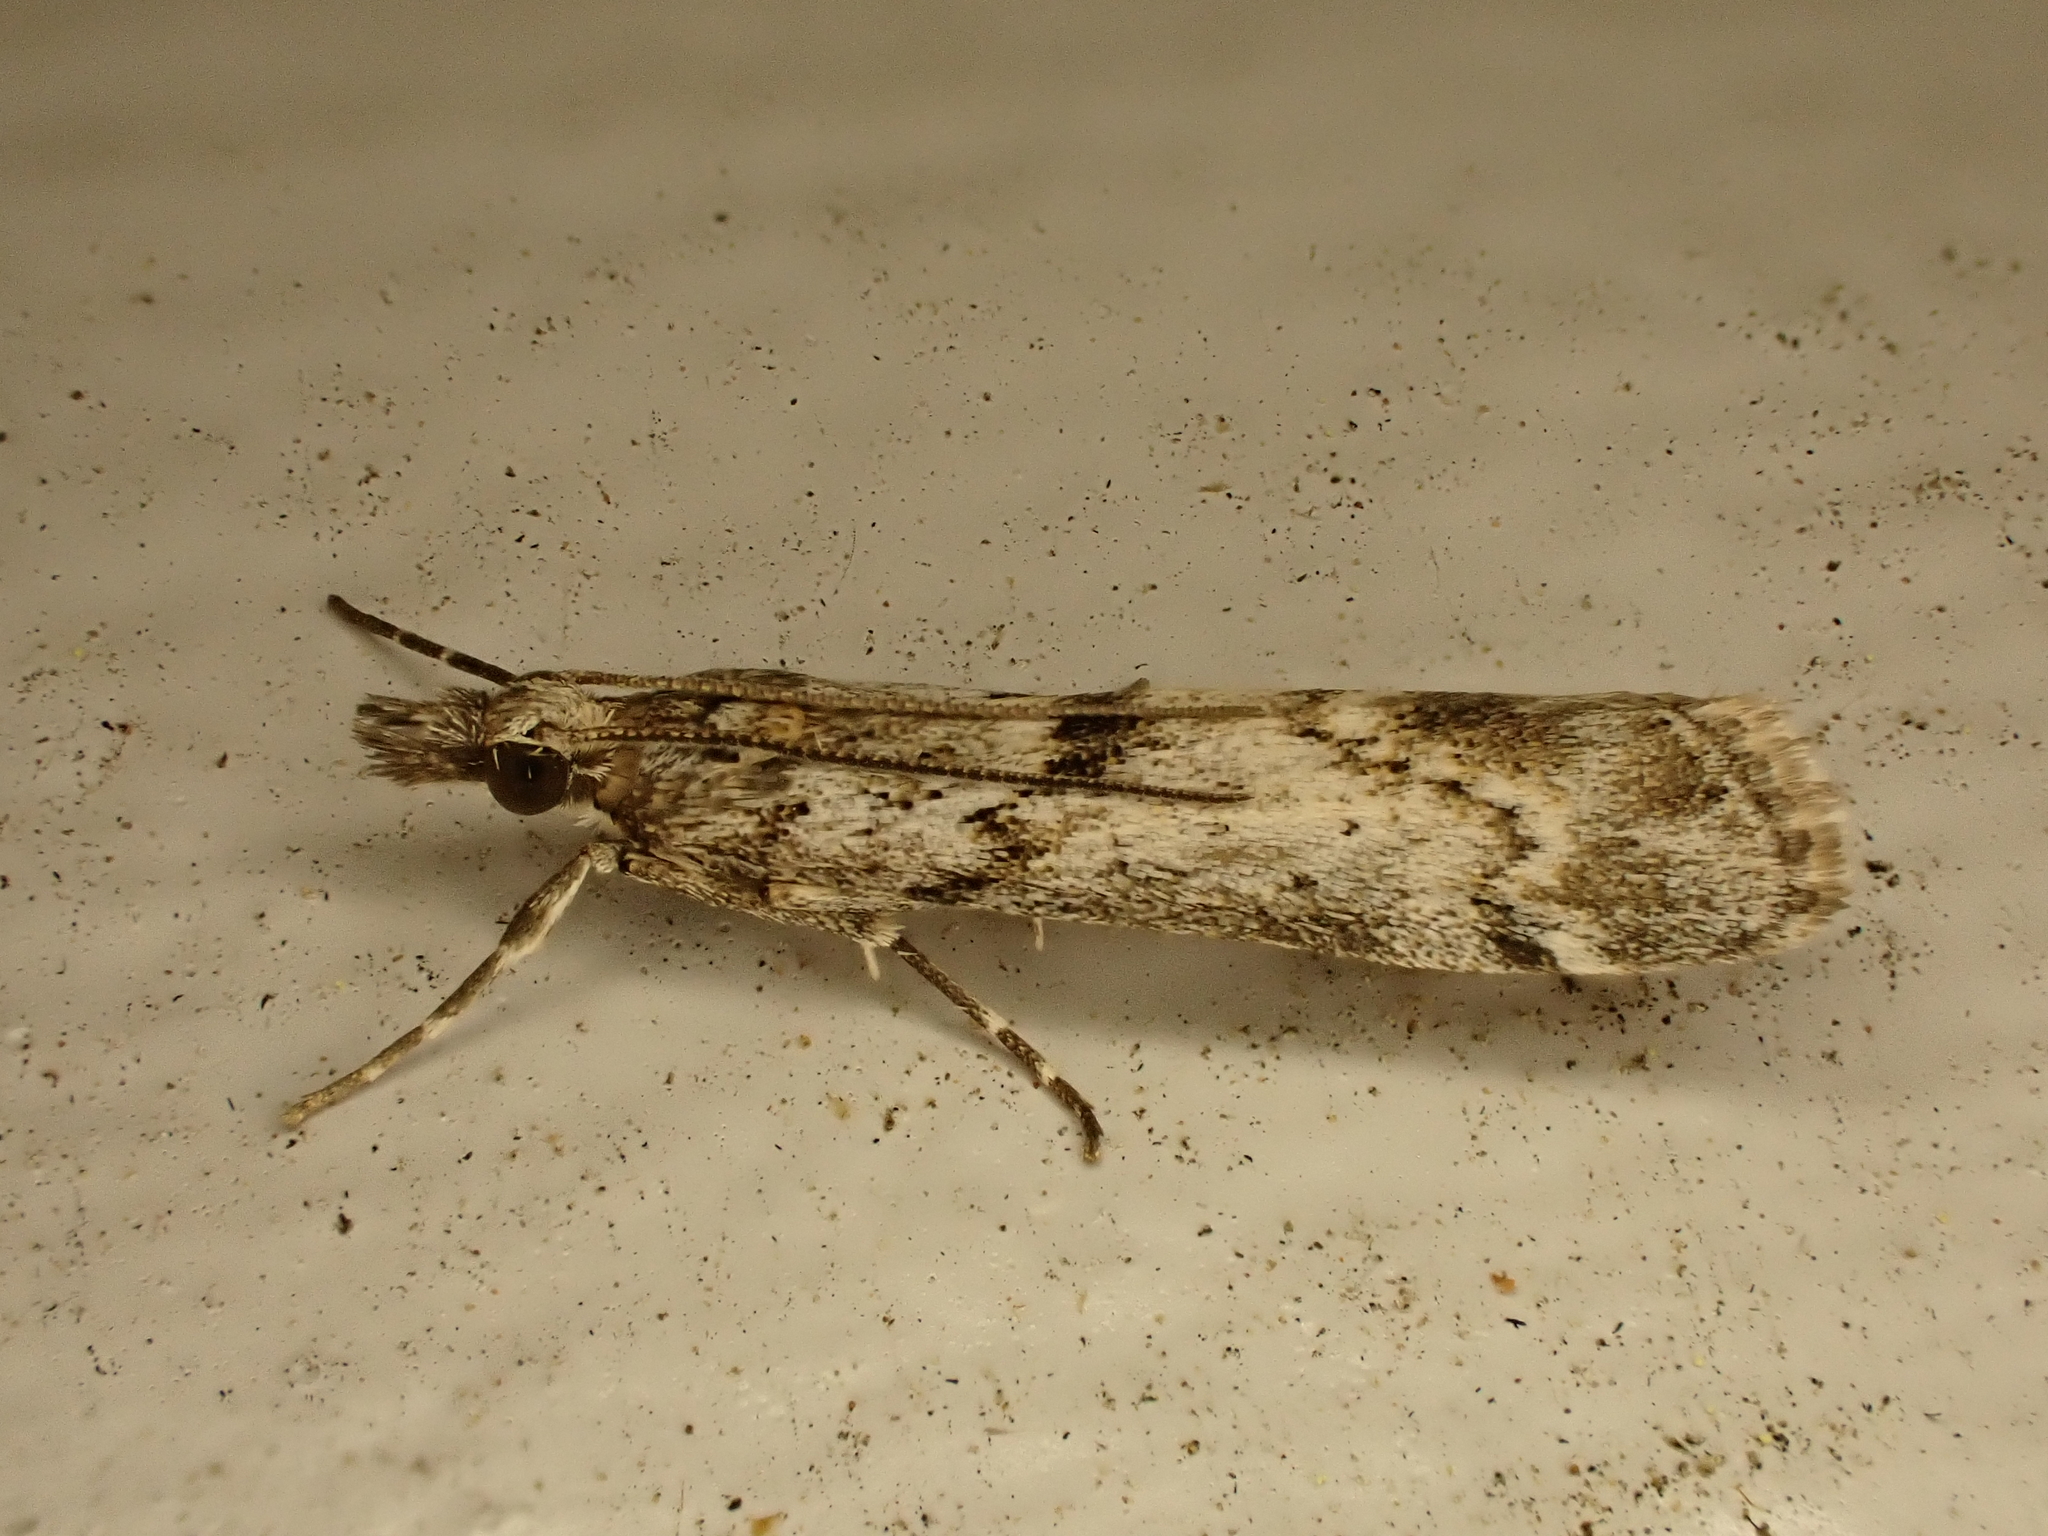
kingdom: Animalia
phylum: Arthropoda
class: Insecta
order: Lepidoptera
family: Crambidae
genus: Eudonia
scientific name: Eudonia leptalea
